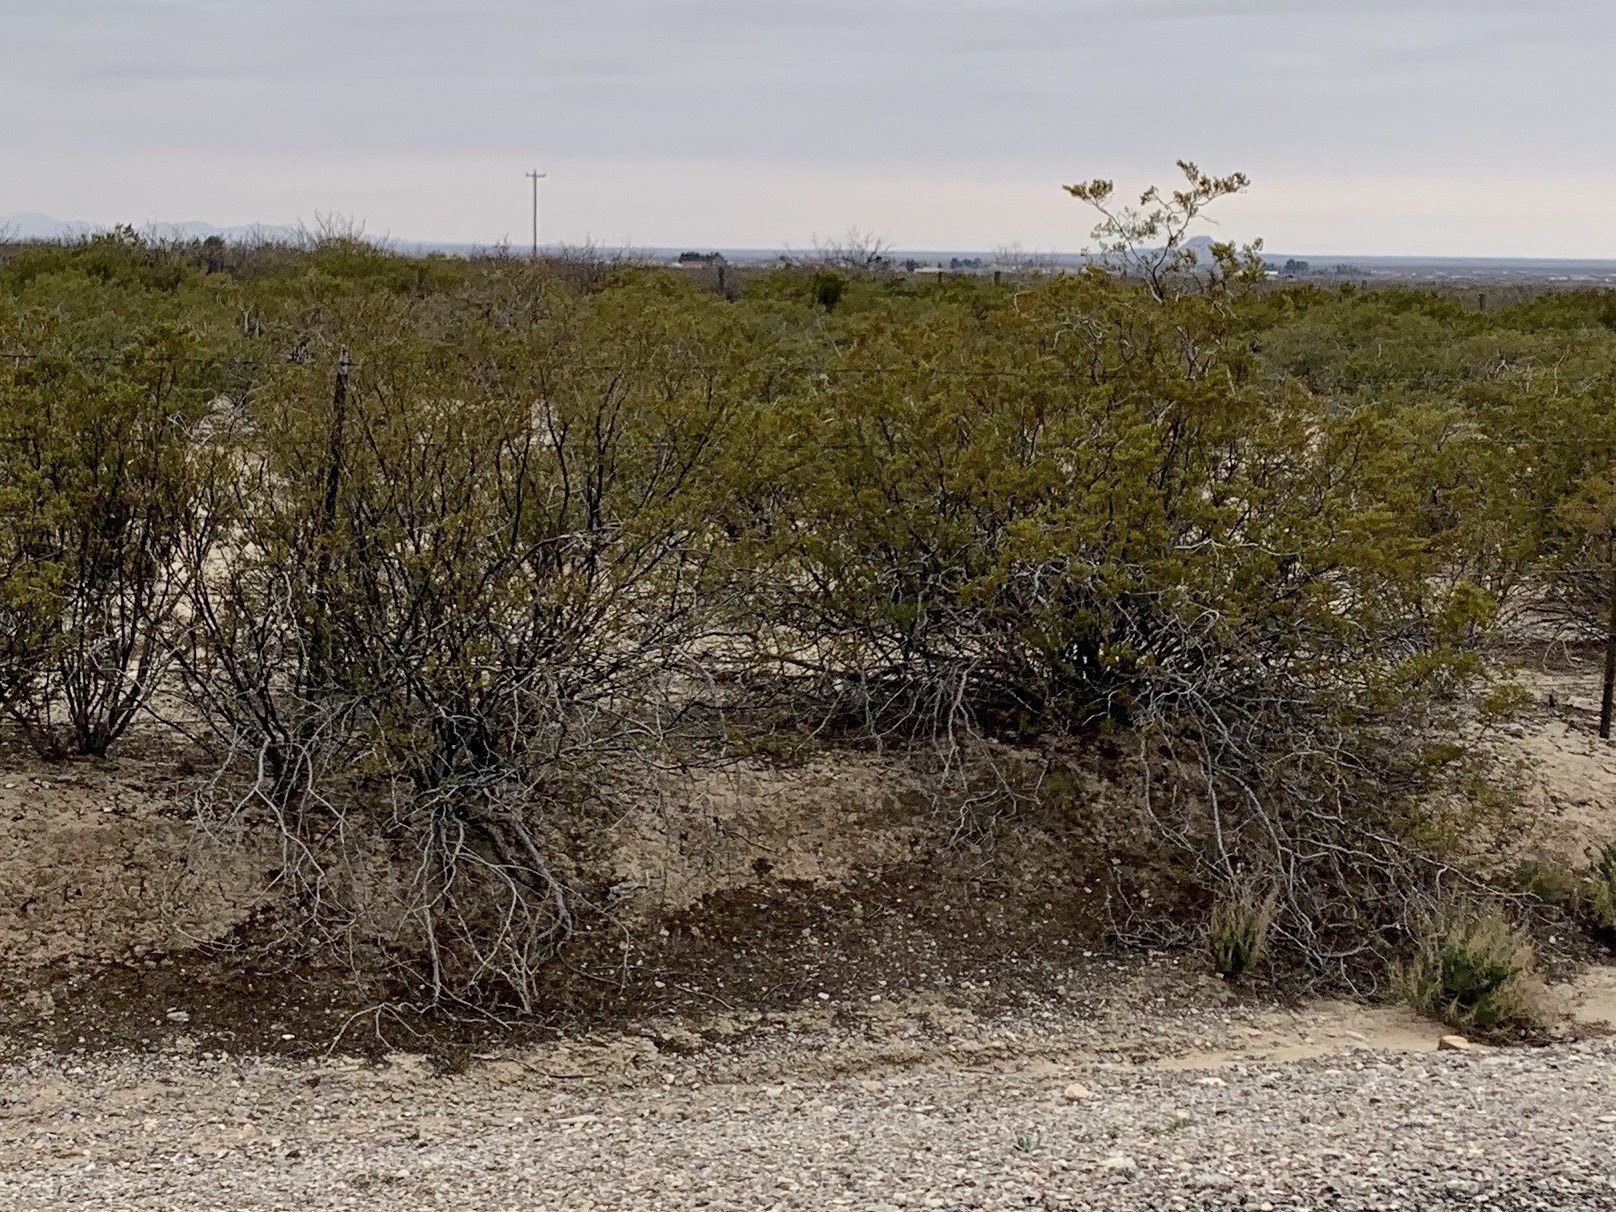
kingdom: Plantae
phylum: Tracheophyta
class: Magnoliopsida
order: Zygophyllales
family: Zygophyllaceae
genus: Larrea
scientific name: Larrea tridentata
